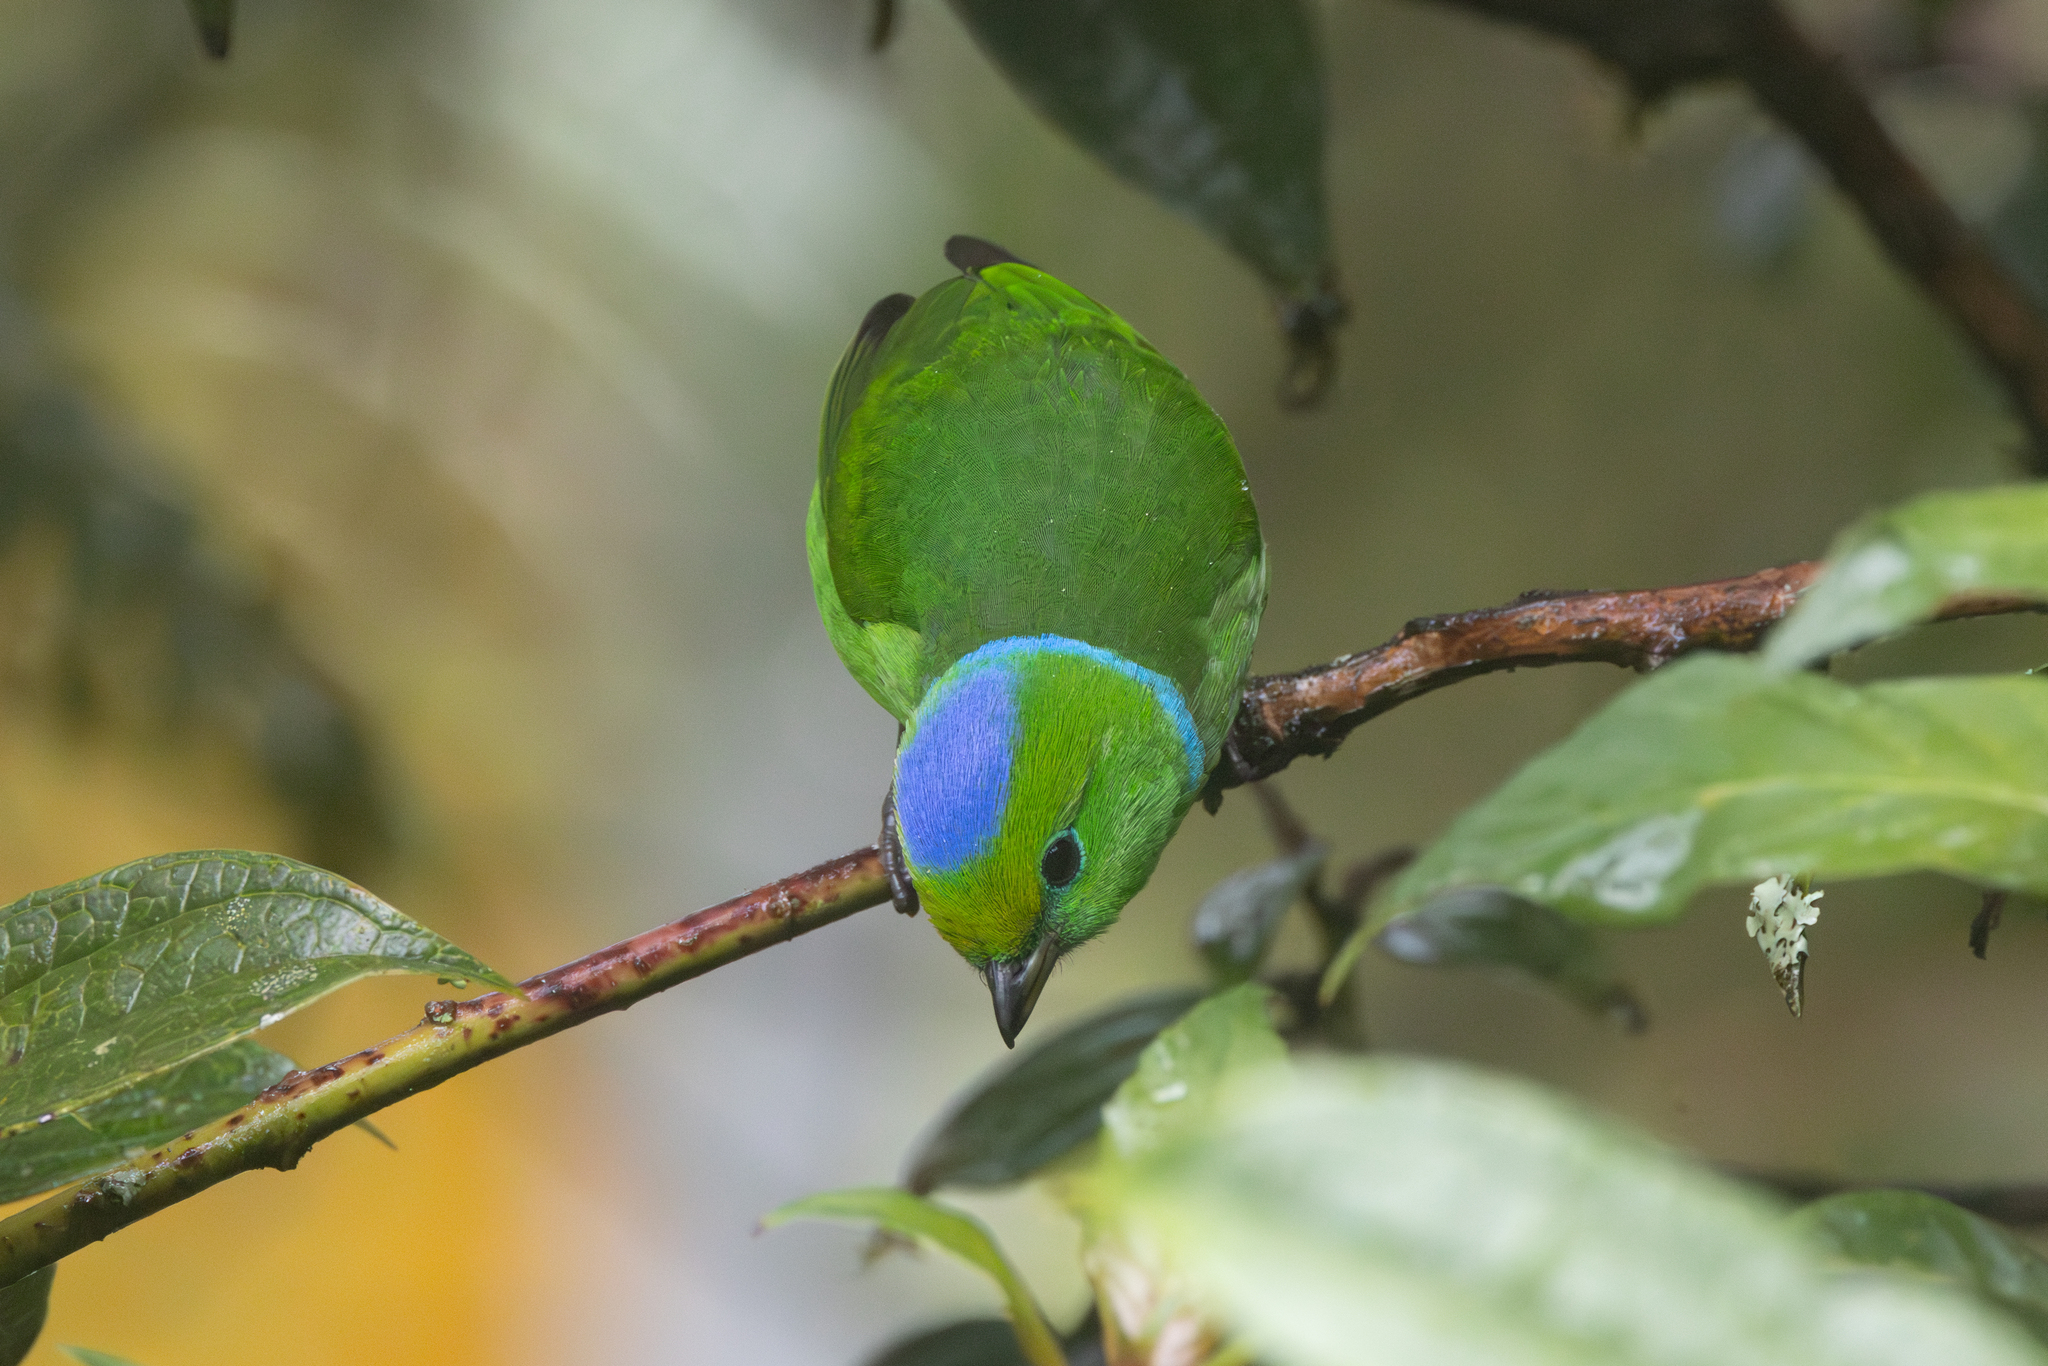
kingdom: Animalia
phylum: Chordata
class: Aves
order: Passeriformes
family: Fringillidae
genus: Chlorophonia
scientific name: Chlorophonia callophrys
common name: Golden-browed chlorophonia
